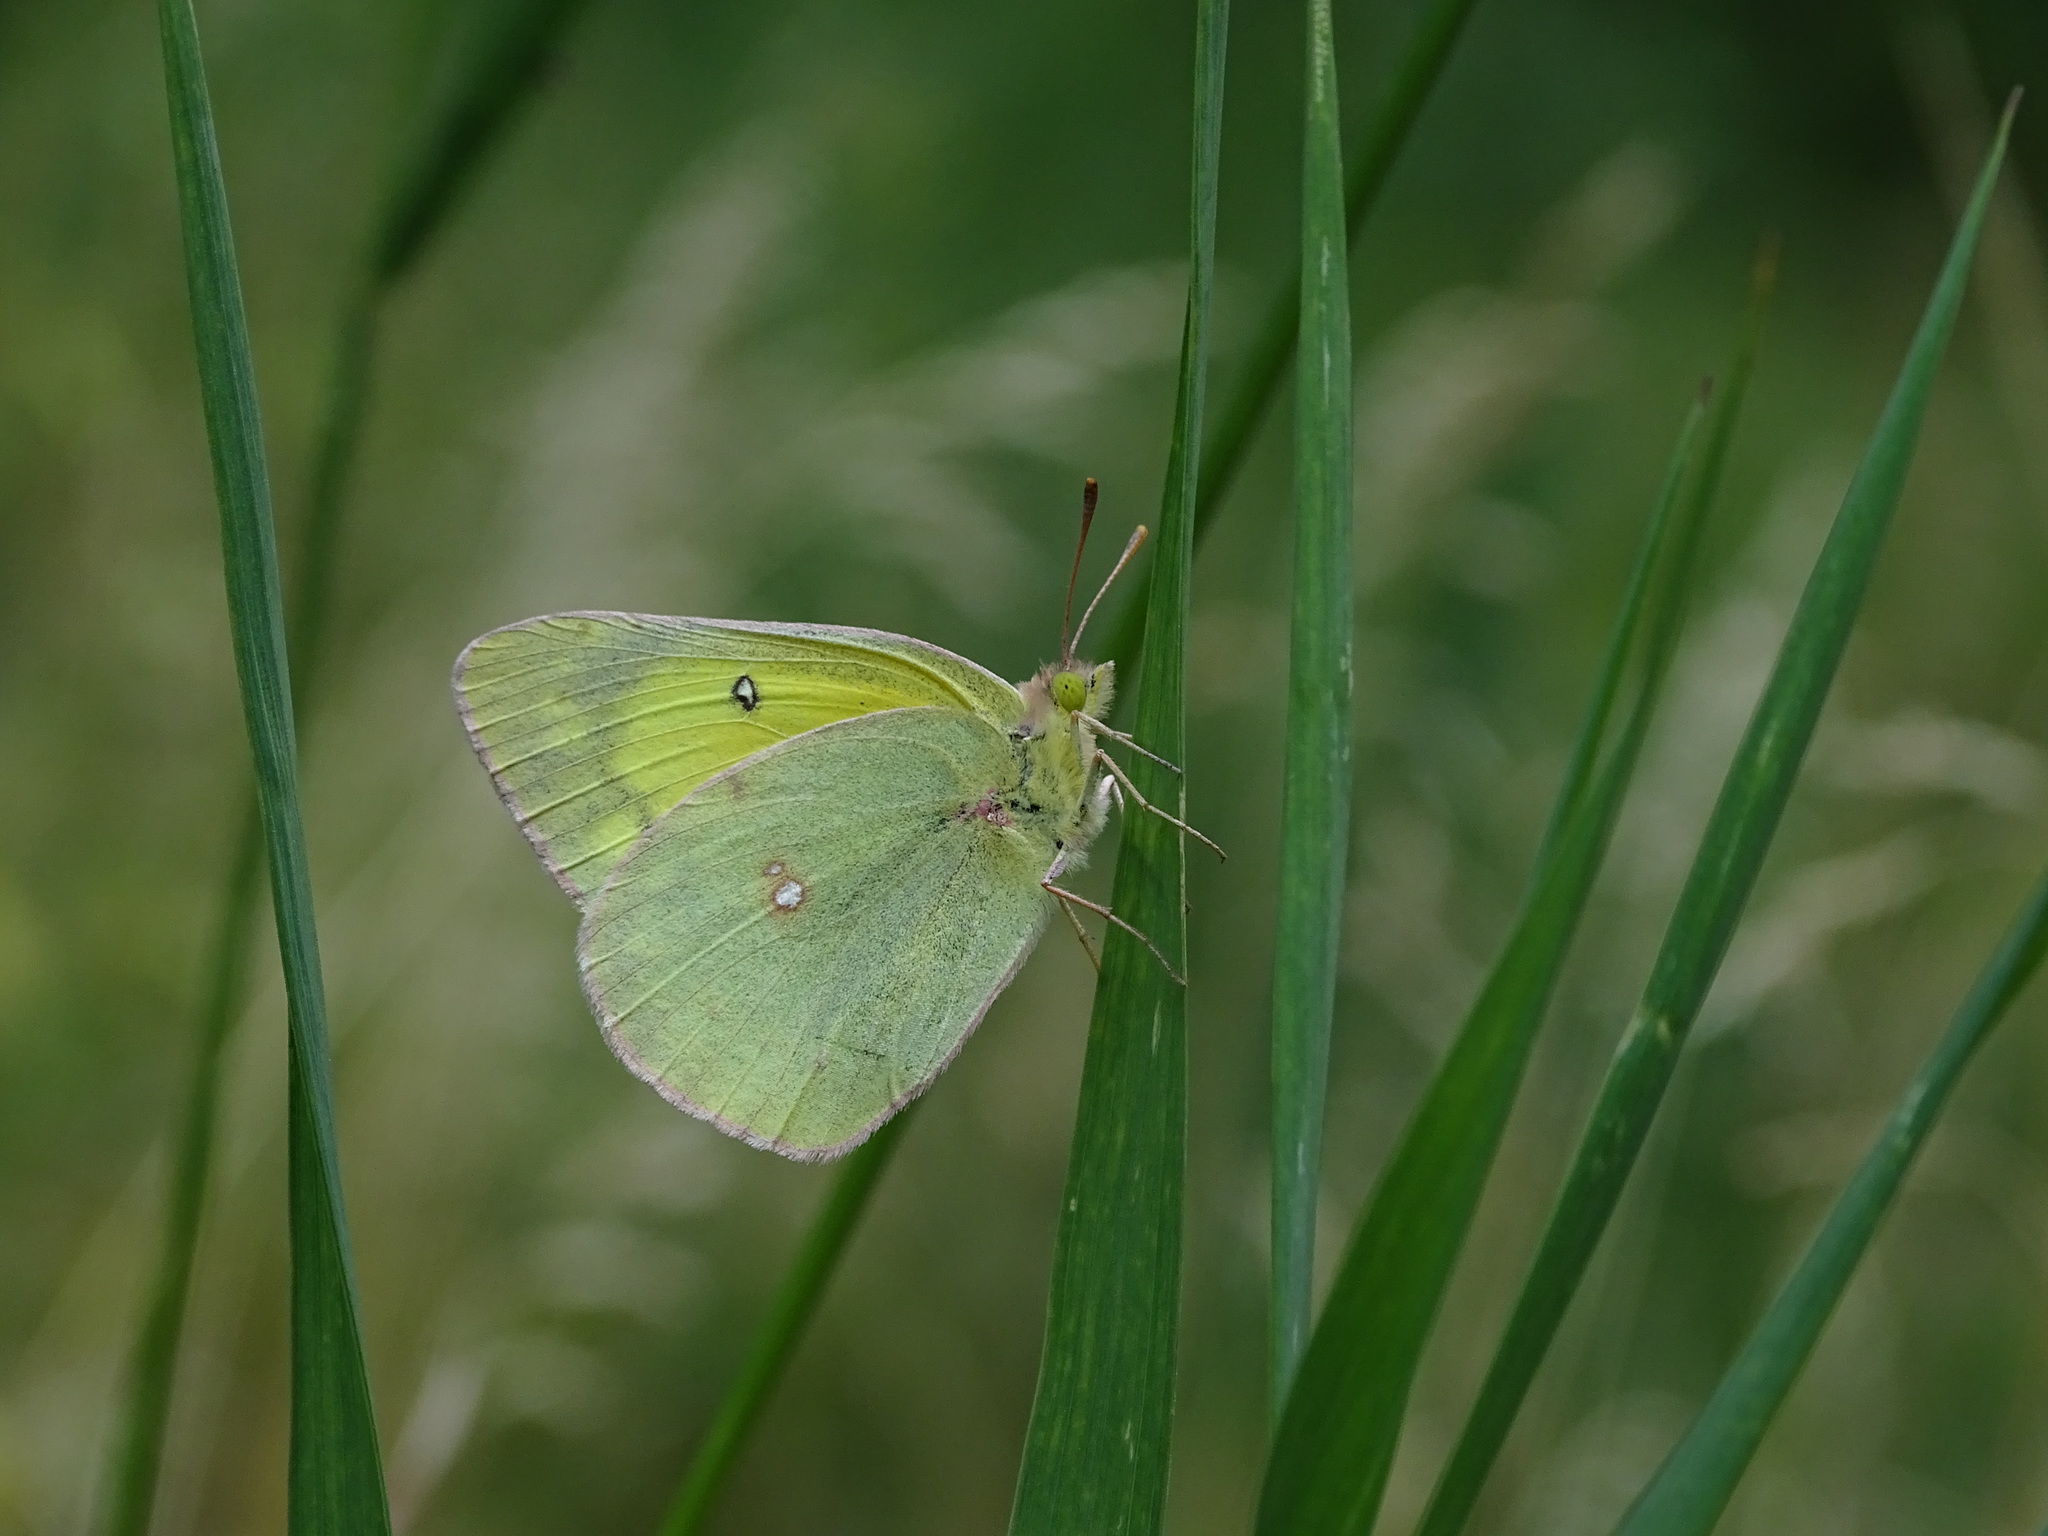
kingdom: Animalia
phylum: Arthropoda
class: Insecta
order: Lepidoptera
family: Pieridae
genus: Colias
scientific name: Colias eurytheme
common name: Alfalfa butterfly
